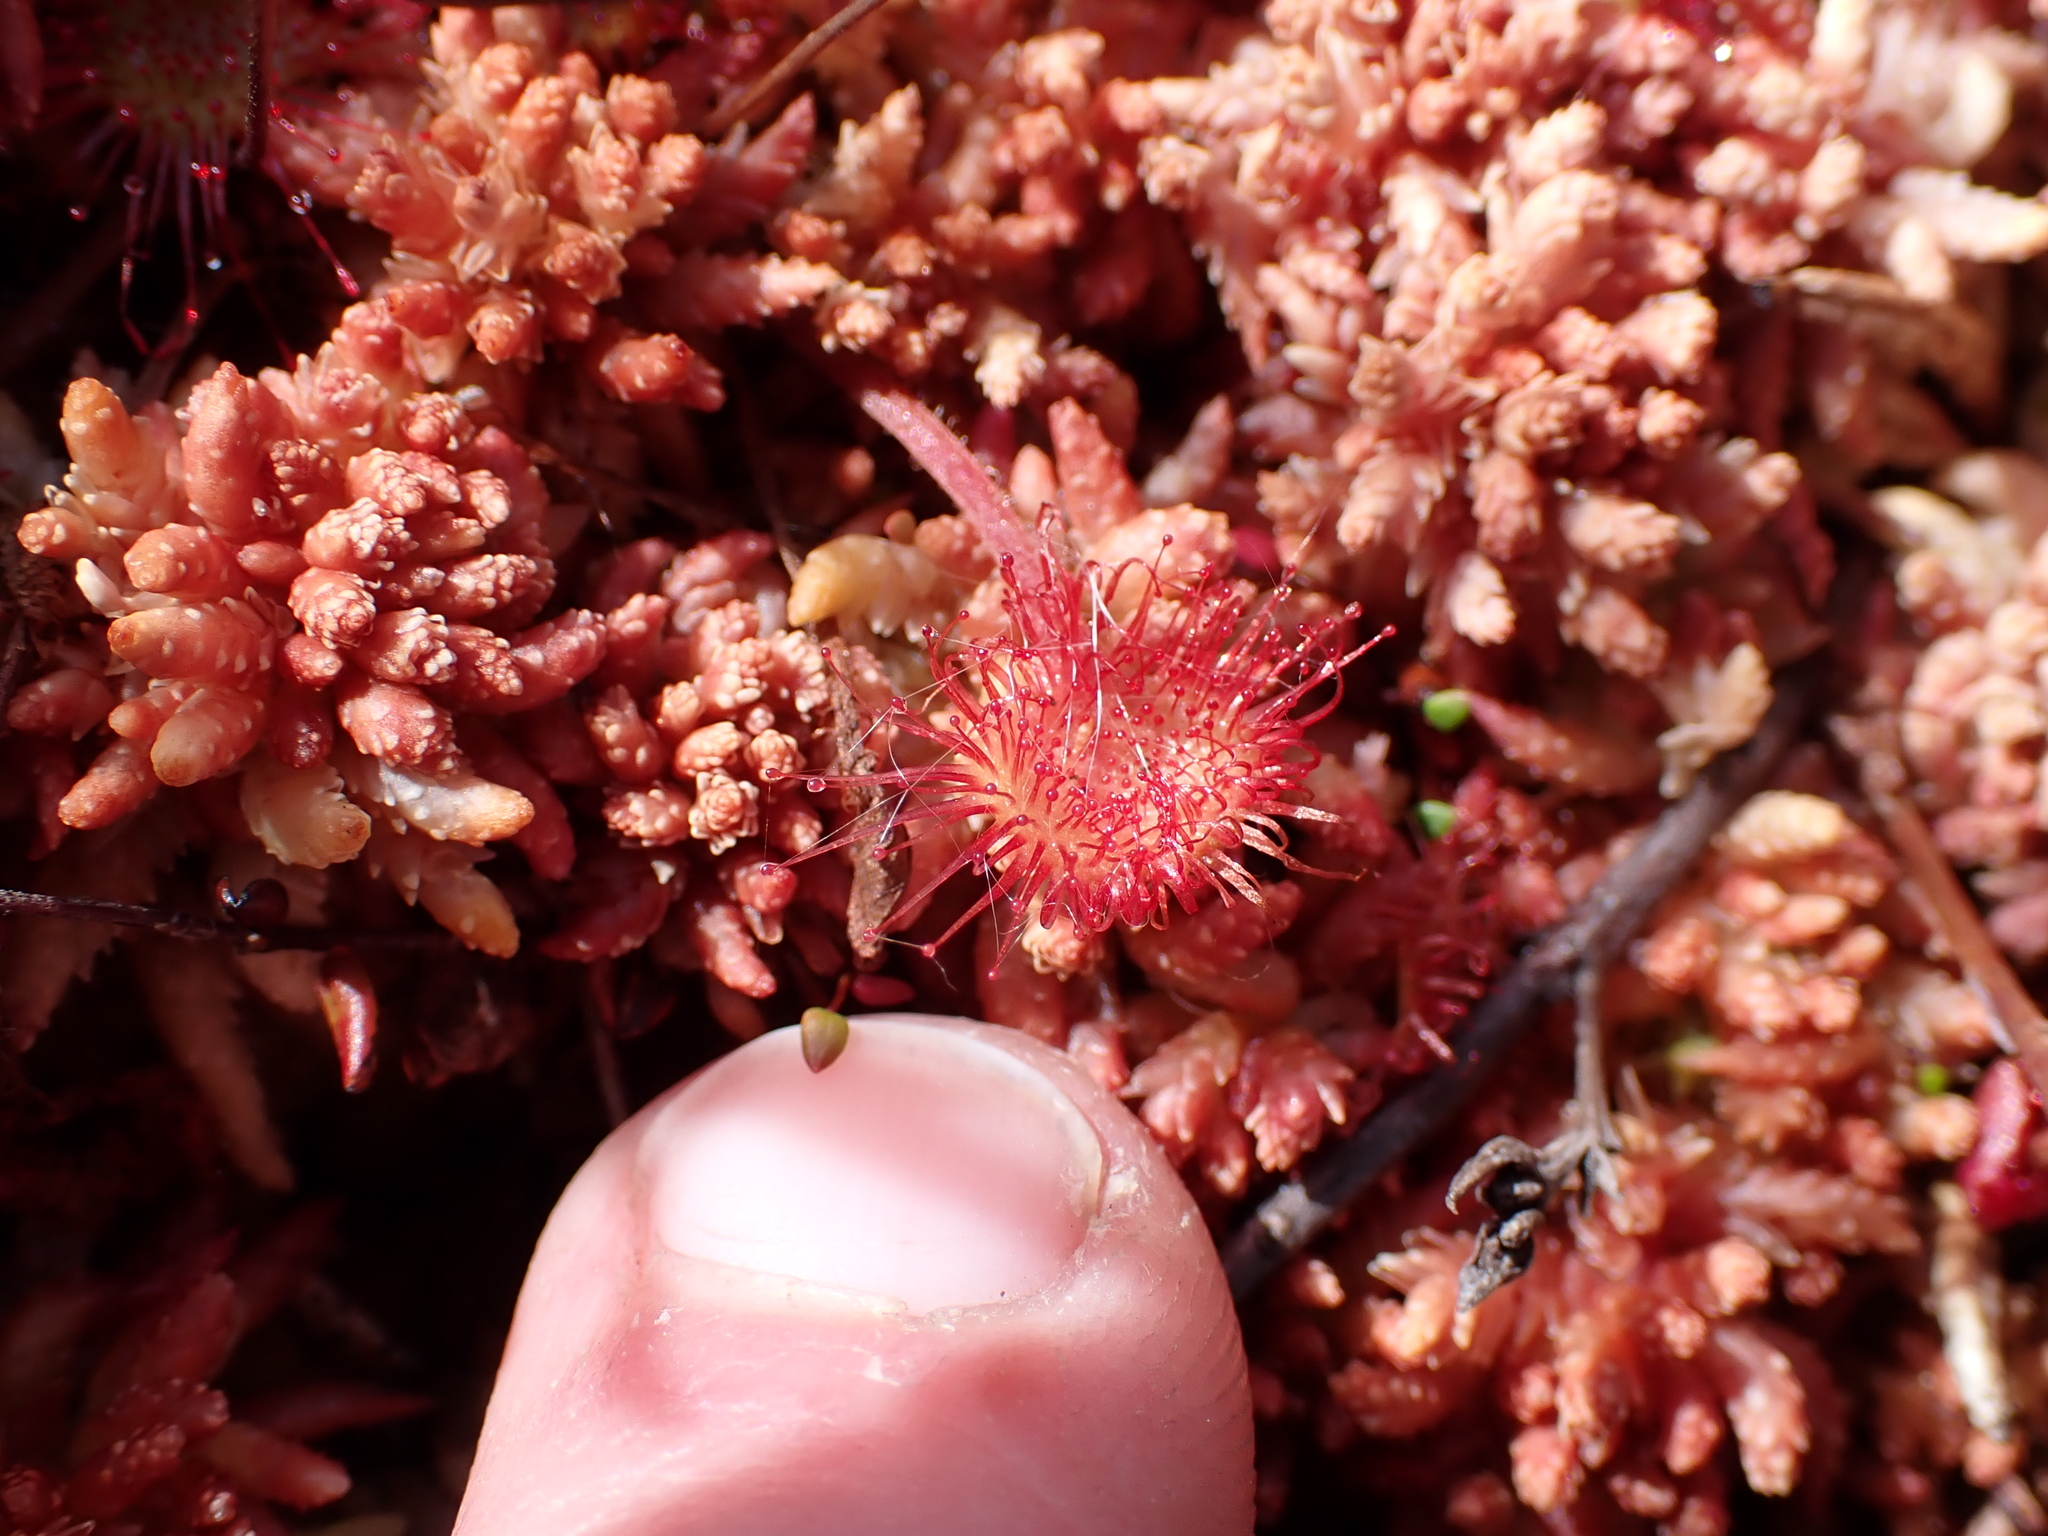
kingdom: Plantae
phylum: Tracheophyta
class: Magnoliopsida
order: Caryophyllales
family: Droseraceae
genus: Drosera
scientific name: Drosera rotundifolia
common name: Round-leaved sundew
